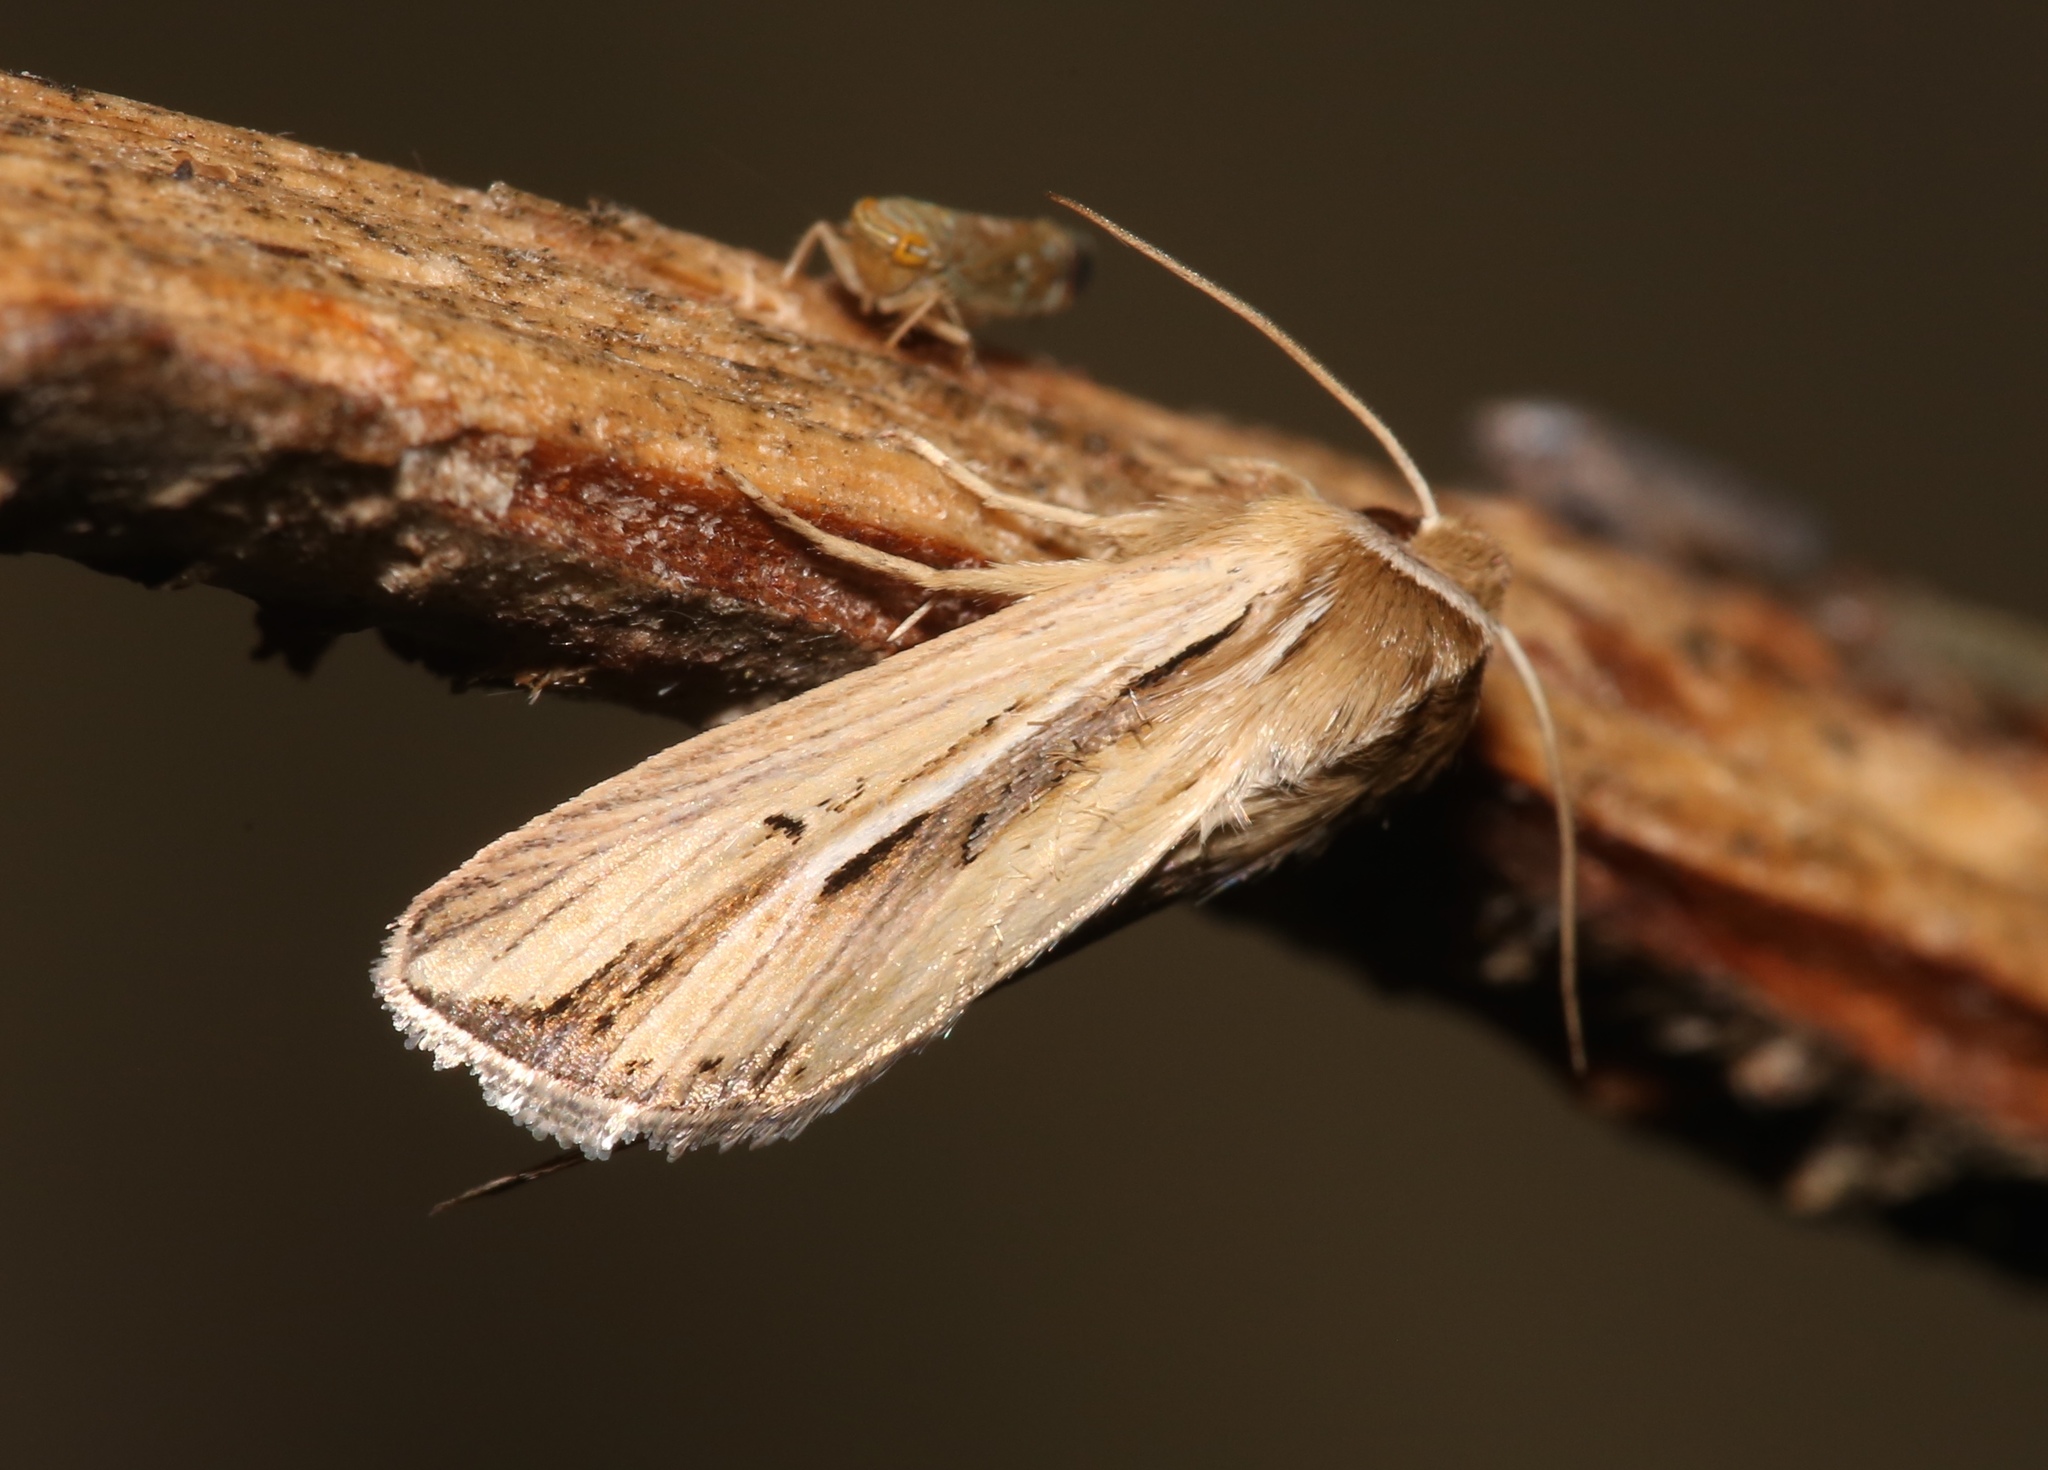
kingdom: Animalia
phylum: Arthropoda
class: Insecta
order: Lepidoptera
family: Noctuidae
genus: Dargida
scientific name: Dargida diffusa
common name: Wheat head armyworm
